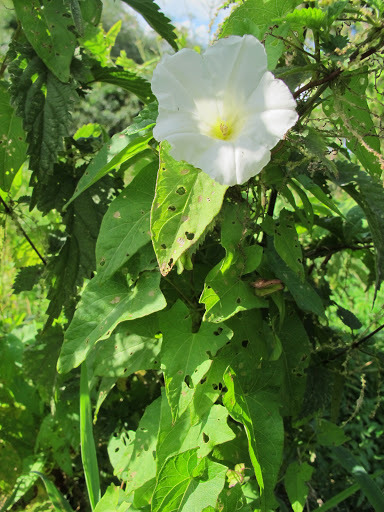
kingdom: Plantae
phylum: Tracheophyta
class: Magnoliopsida
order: Solanales
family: Convolvulaceae
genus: Calystegia
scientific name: Calystegia sepium
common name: Hedge bindweed
